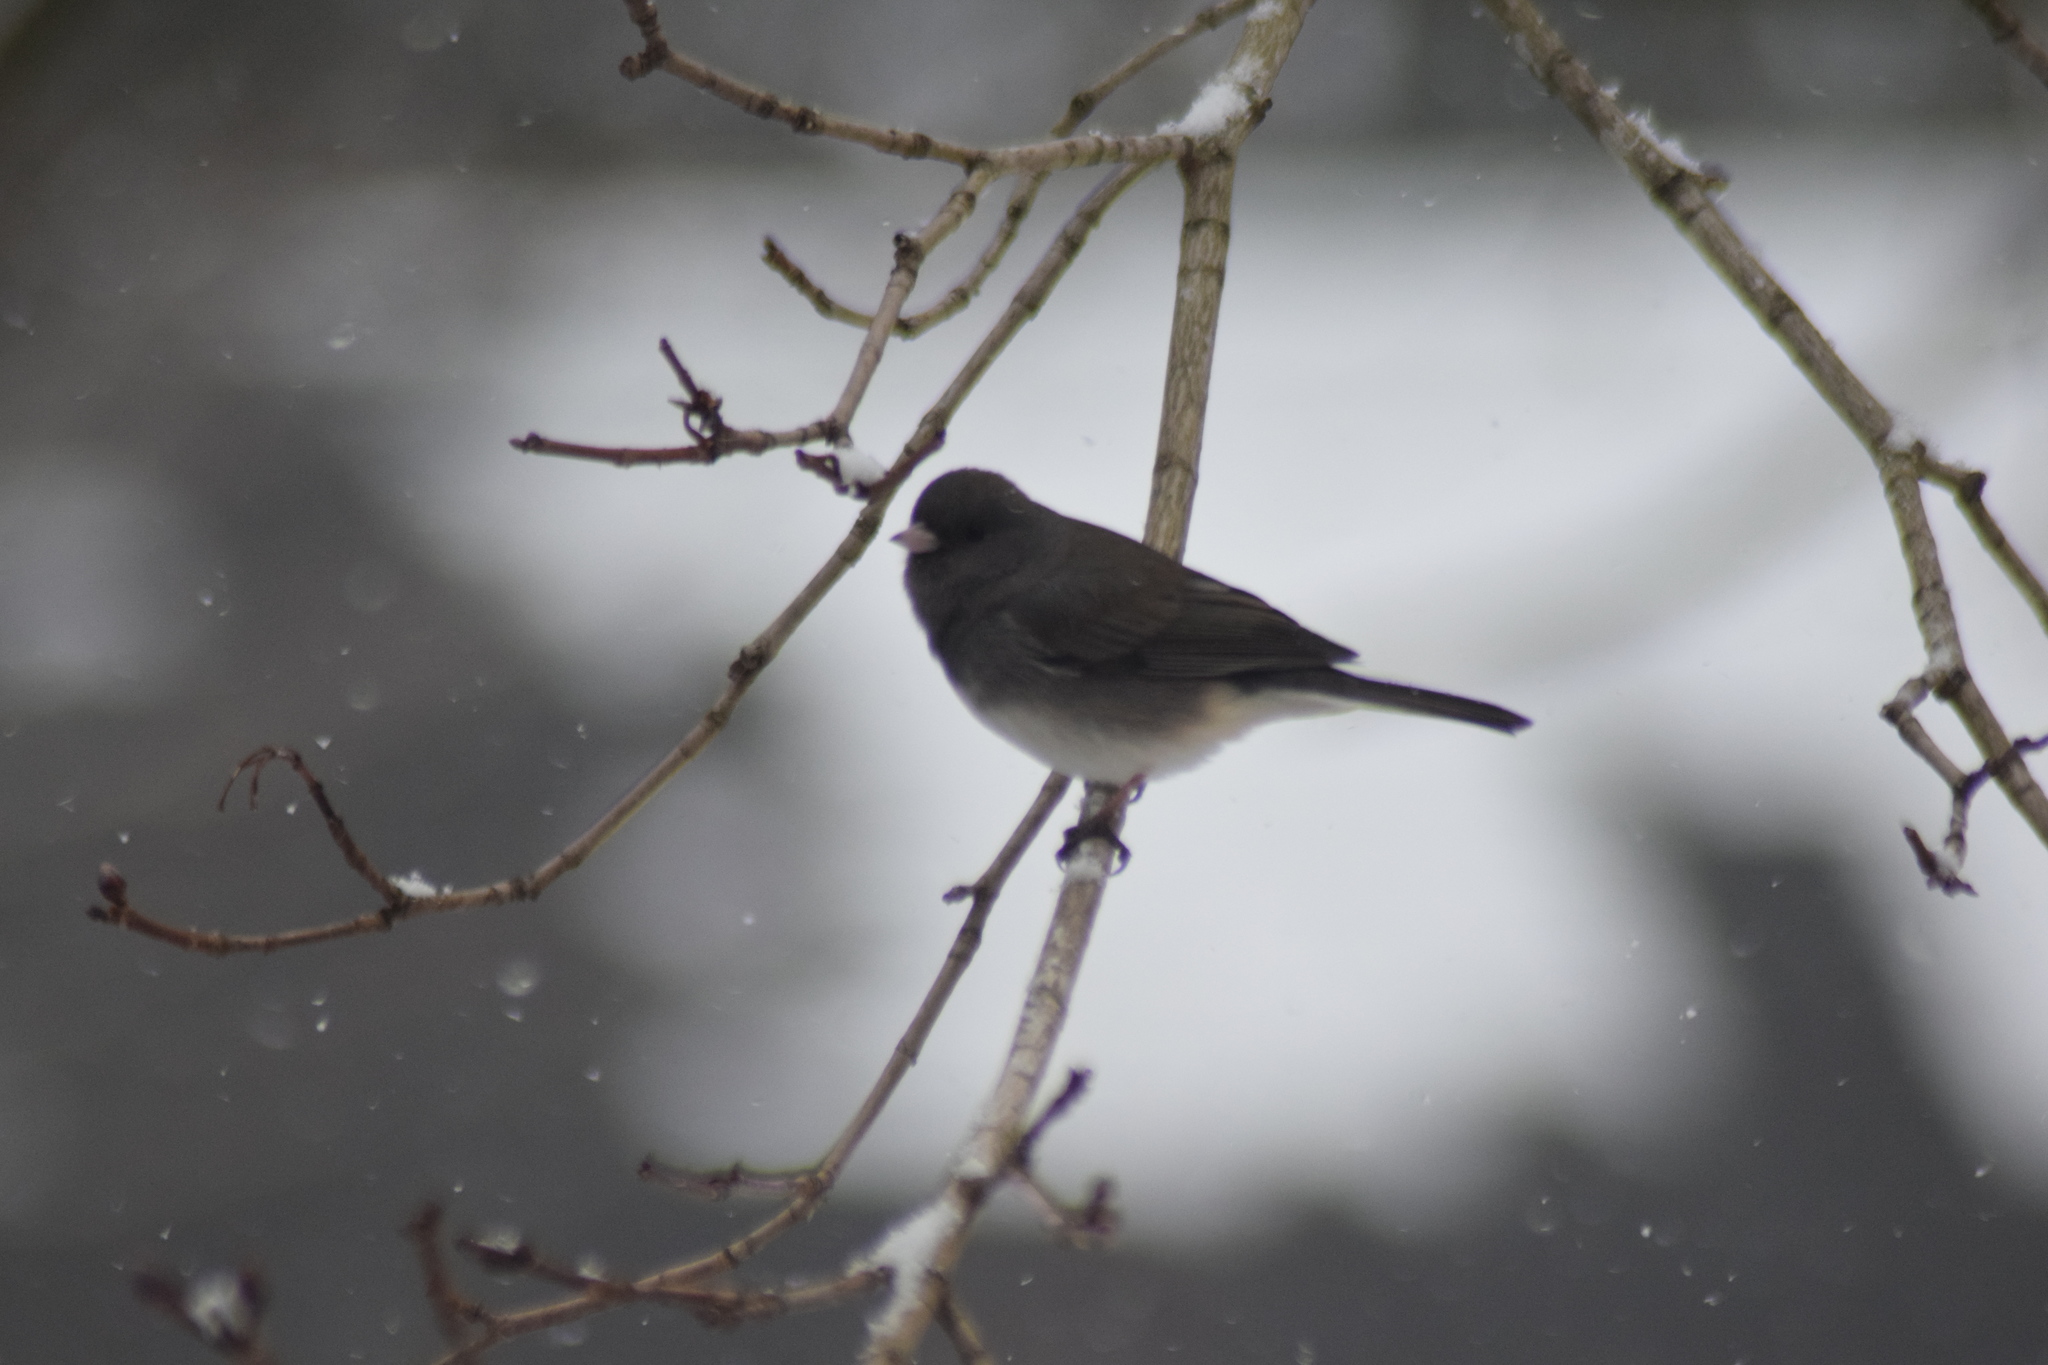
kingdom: Animalia
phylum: Chordata
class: Aves
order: Passeriformes
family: Passerellidae
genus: Junco
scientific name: Junco hyemalis
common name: Dark-eyed junco
